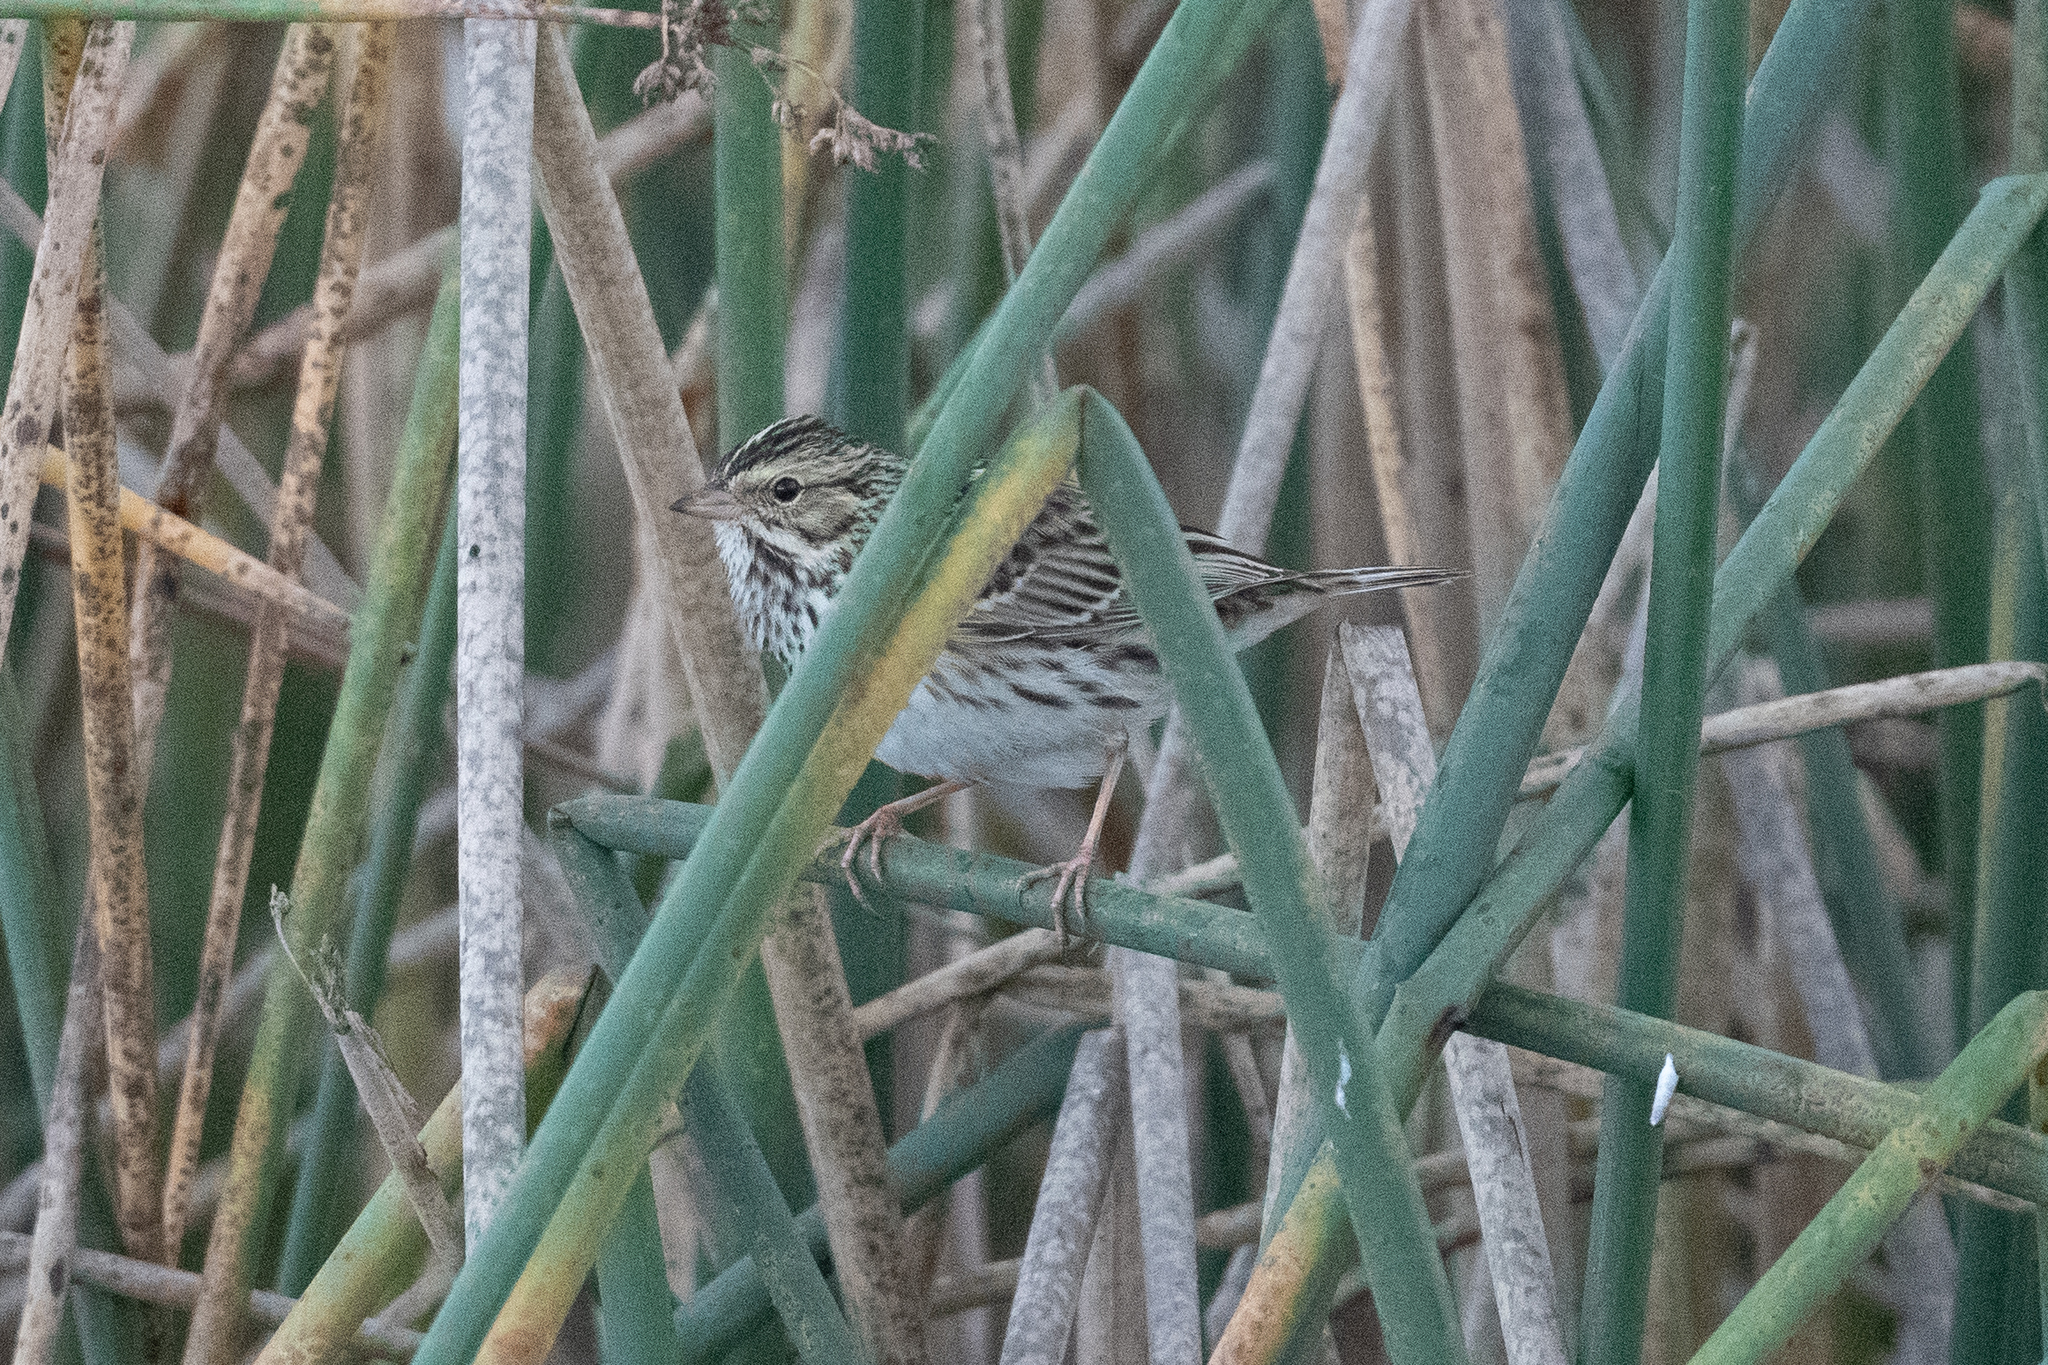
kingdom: Animalia
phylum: Chordata
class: Aves
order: Passeriformes
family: Passerellidae
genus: Passerculus
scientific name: Passerculus sandwichensis
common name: Savannah sparrow
